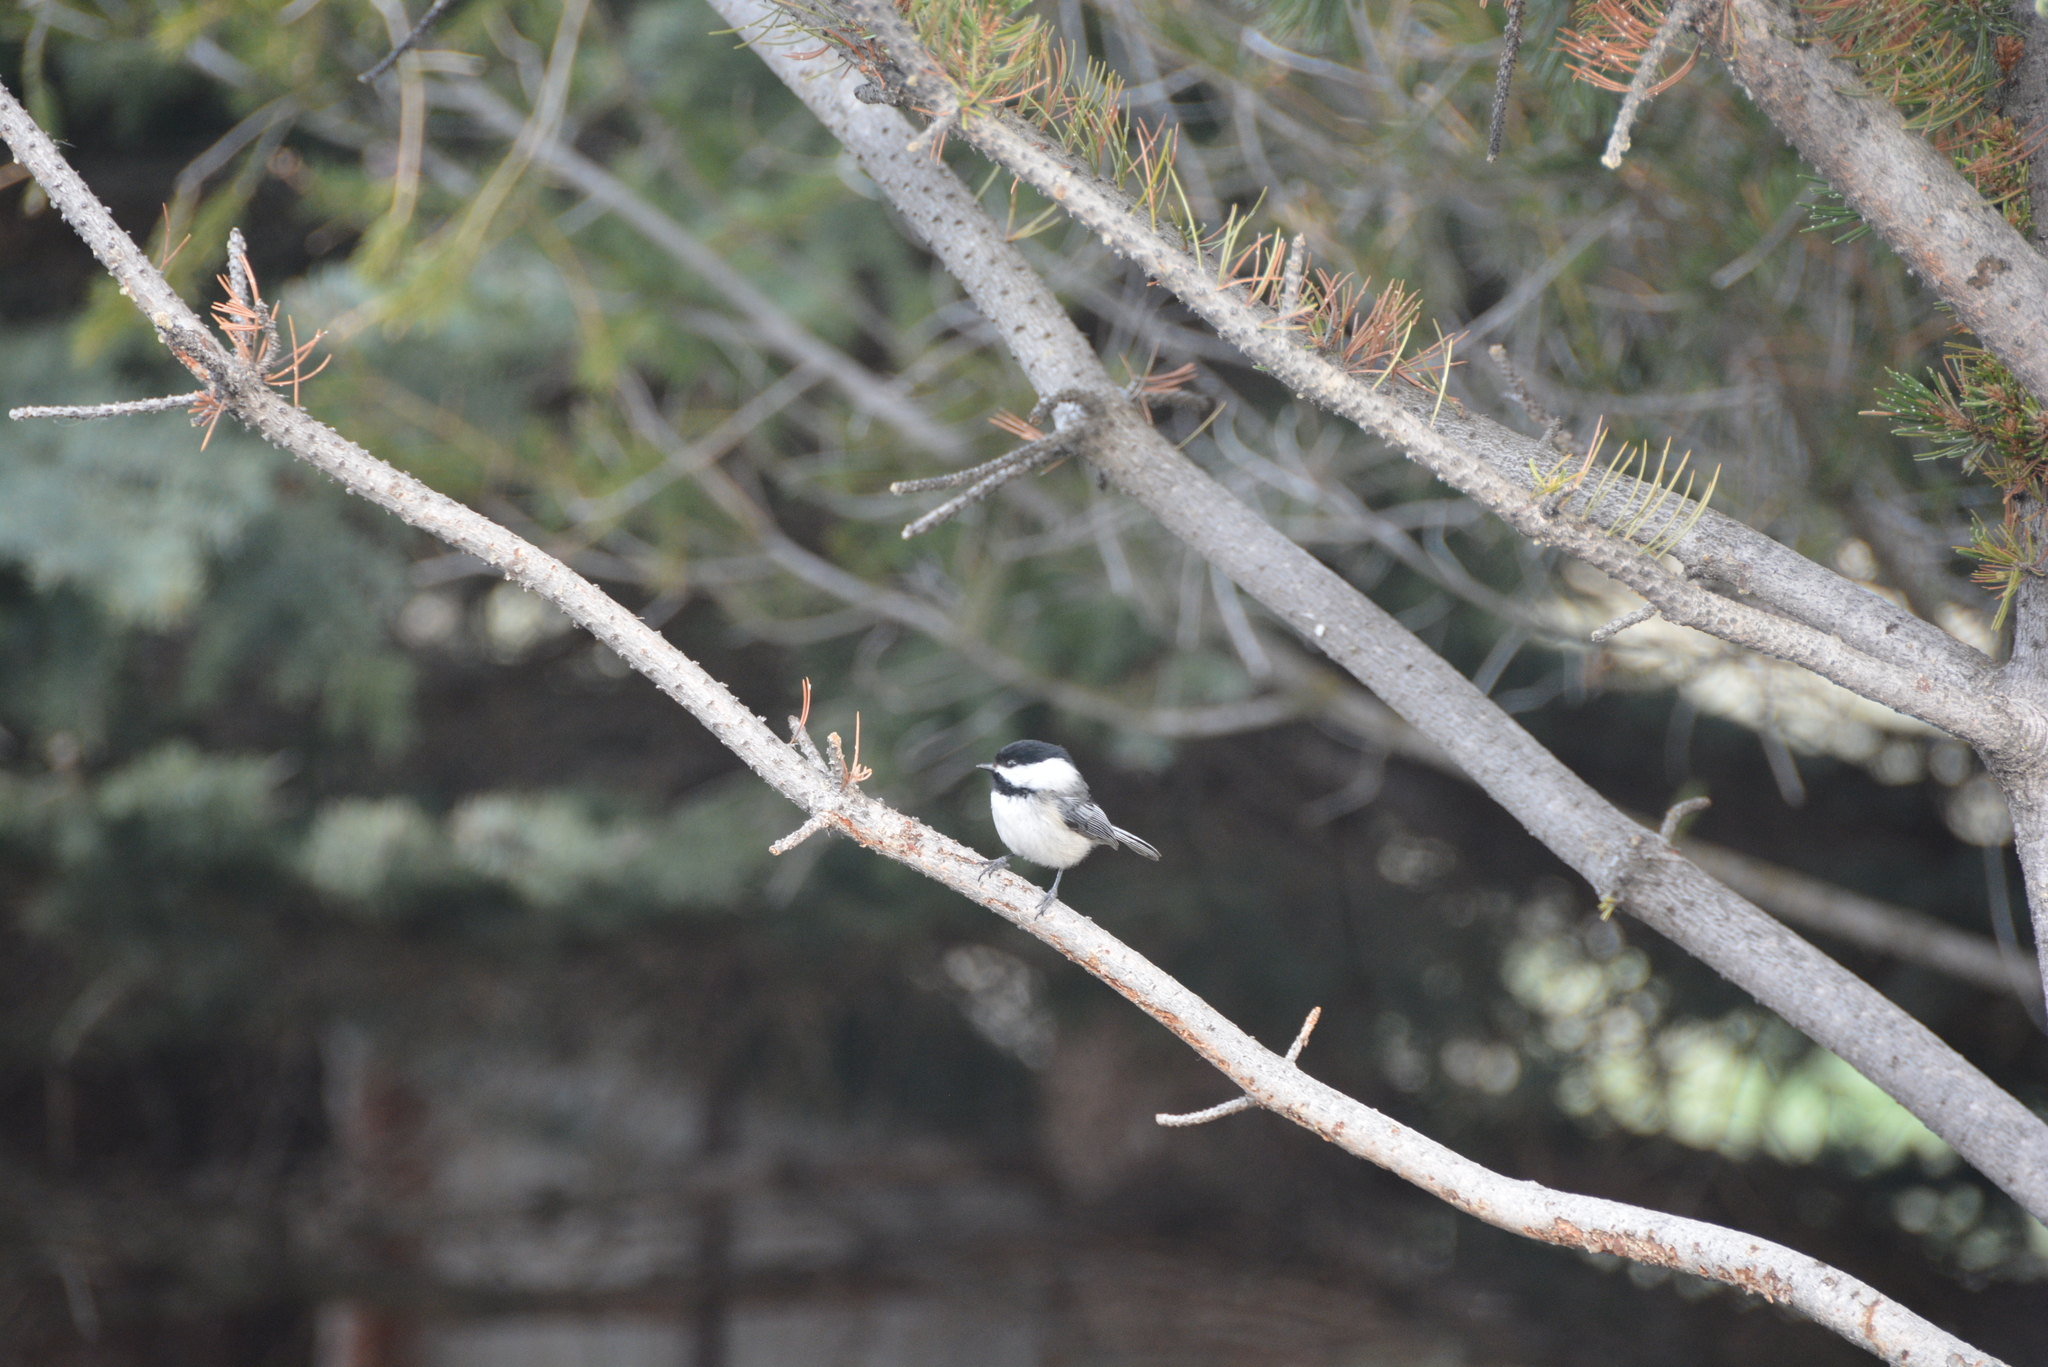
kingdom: Animalia
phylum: Chordata
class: Aves
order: Passeriformes
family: Paridae
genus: Poecile
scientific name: Poecile atricapillus
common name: Black-capped chickadee
